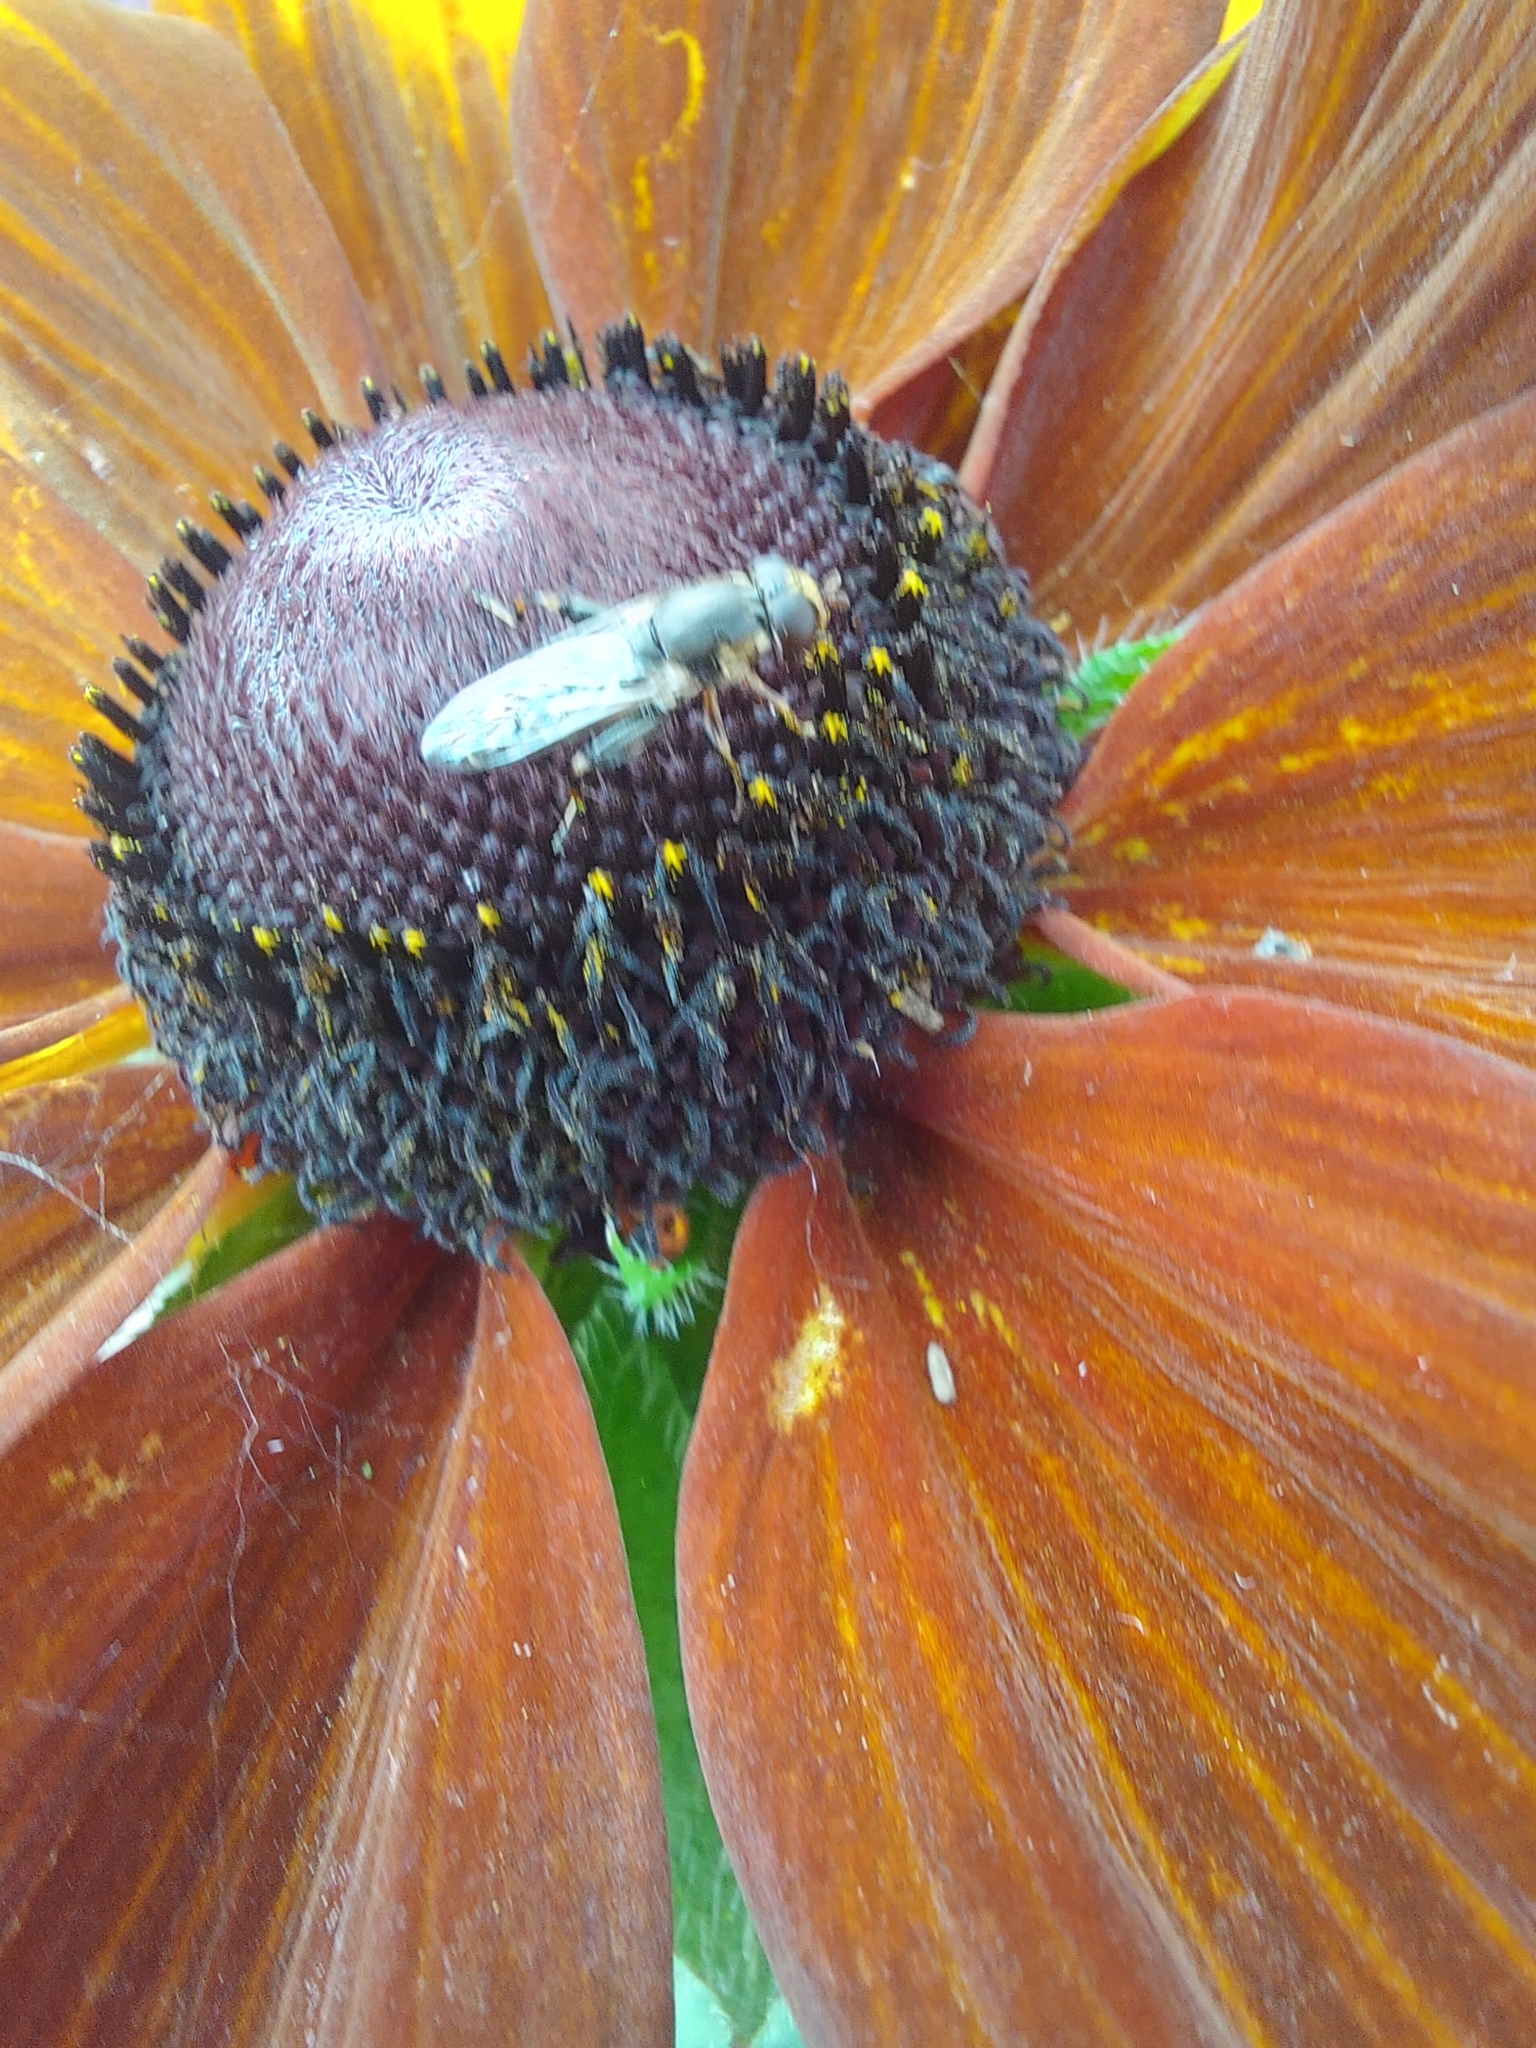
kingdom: Animalia
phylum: Arthropoda
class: Insecta
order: Diptera
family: Syrphidae
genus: Syritta
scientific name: Syritta pipiens
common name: Hover fly
